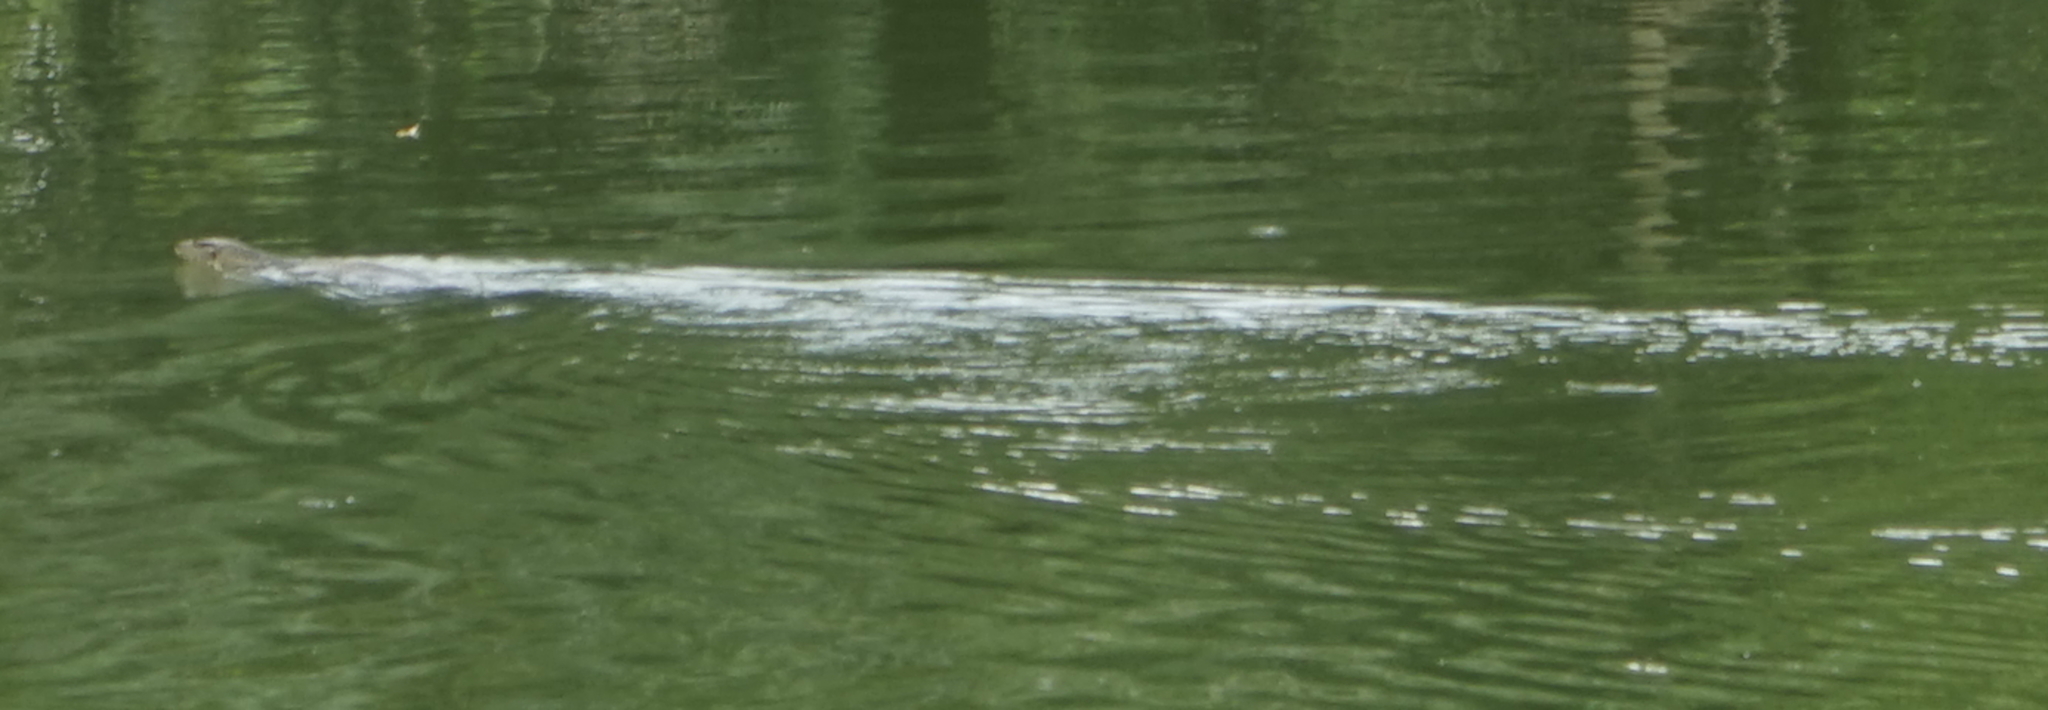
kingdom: Animalia
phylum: Chordata
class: Squamata
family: Varanidae
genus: Varanus
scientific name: Varanus salvator
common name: Common water monitor
